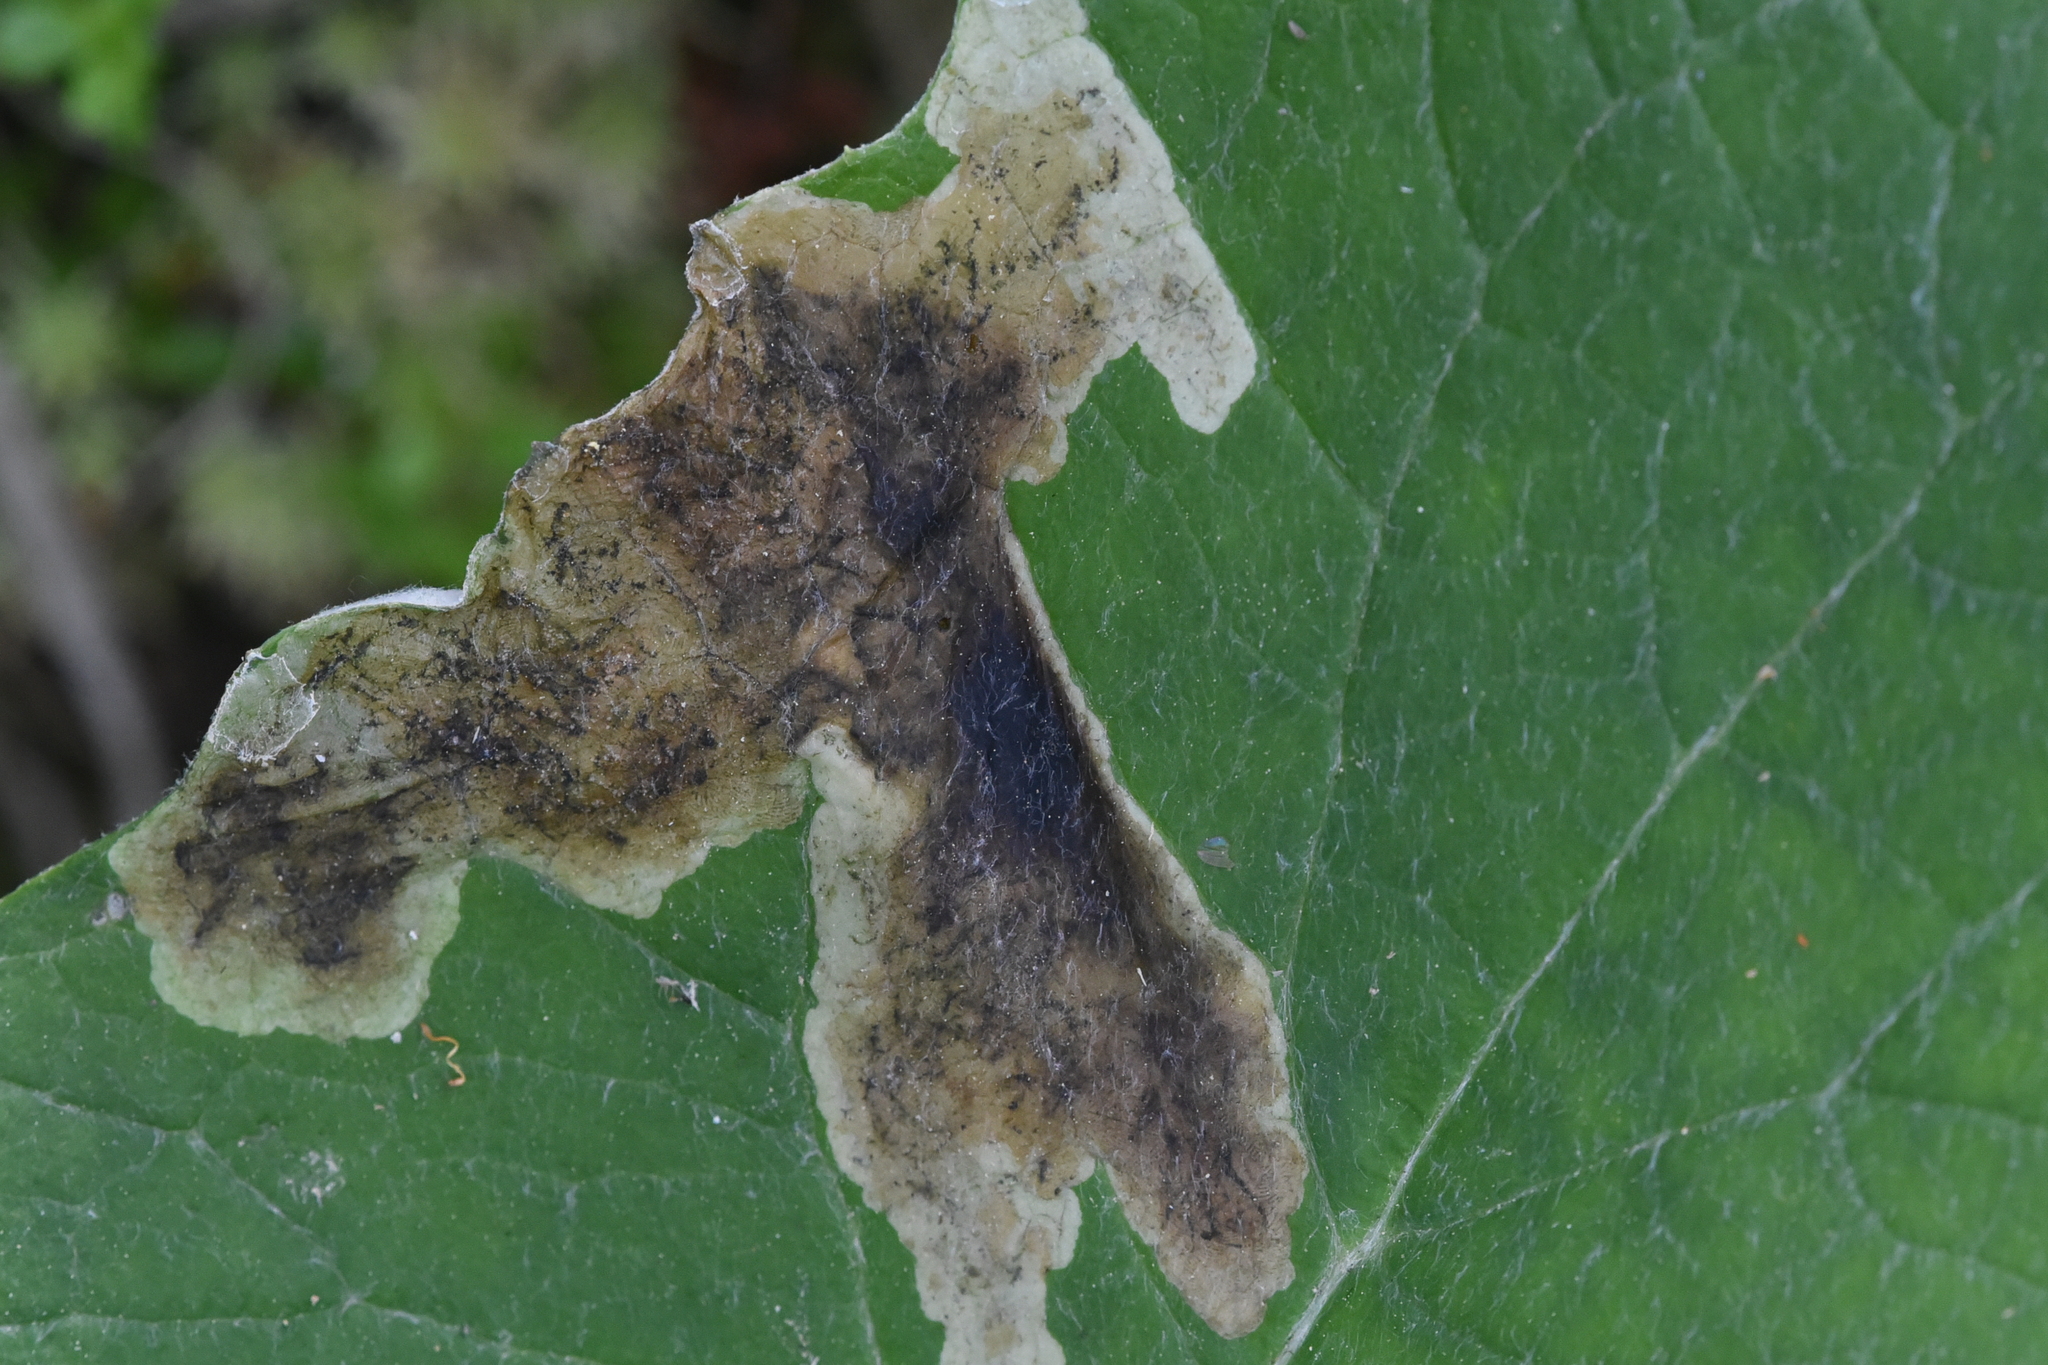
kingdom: Animalia
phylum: Arthropoda
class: Insecta
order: Diptera
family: Anthomyiidae
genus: Pegomya
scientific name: Pegomya depressiventris
